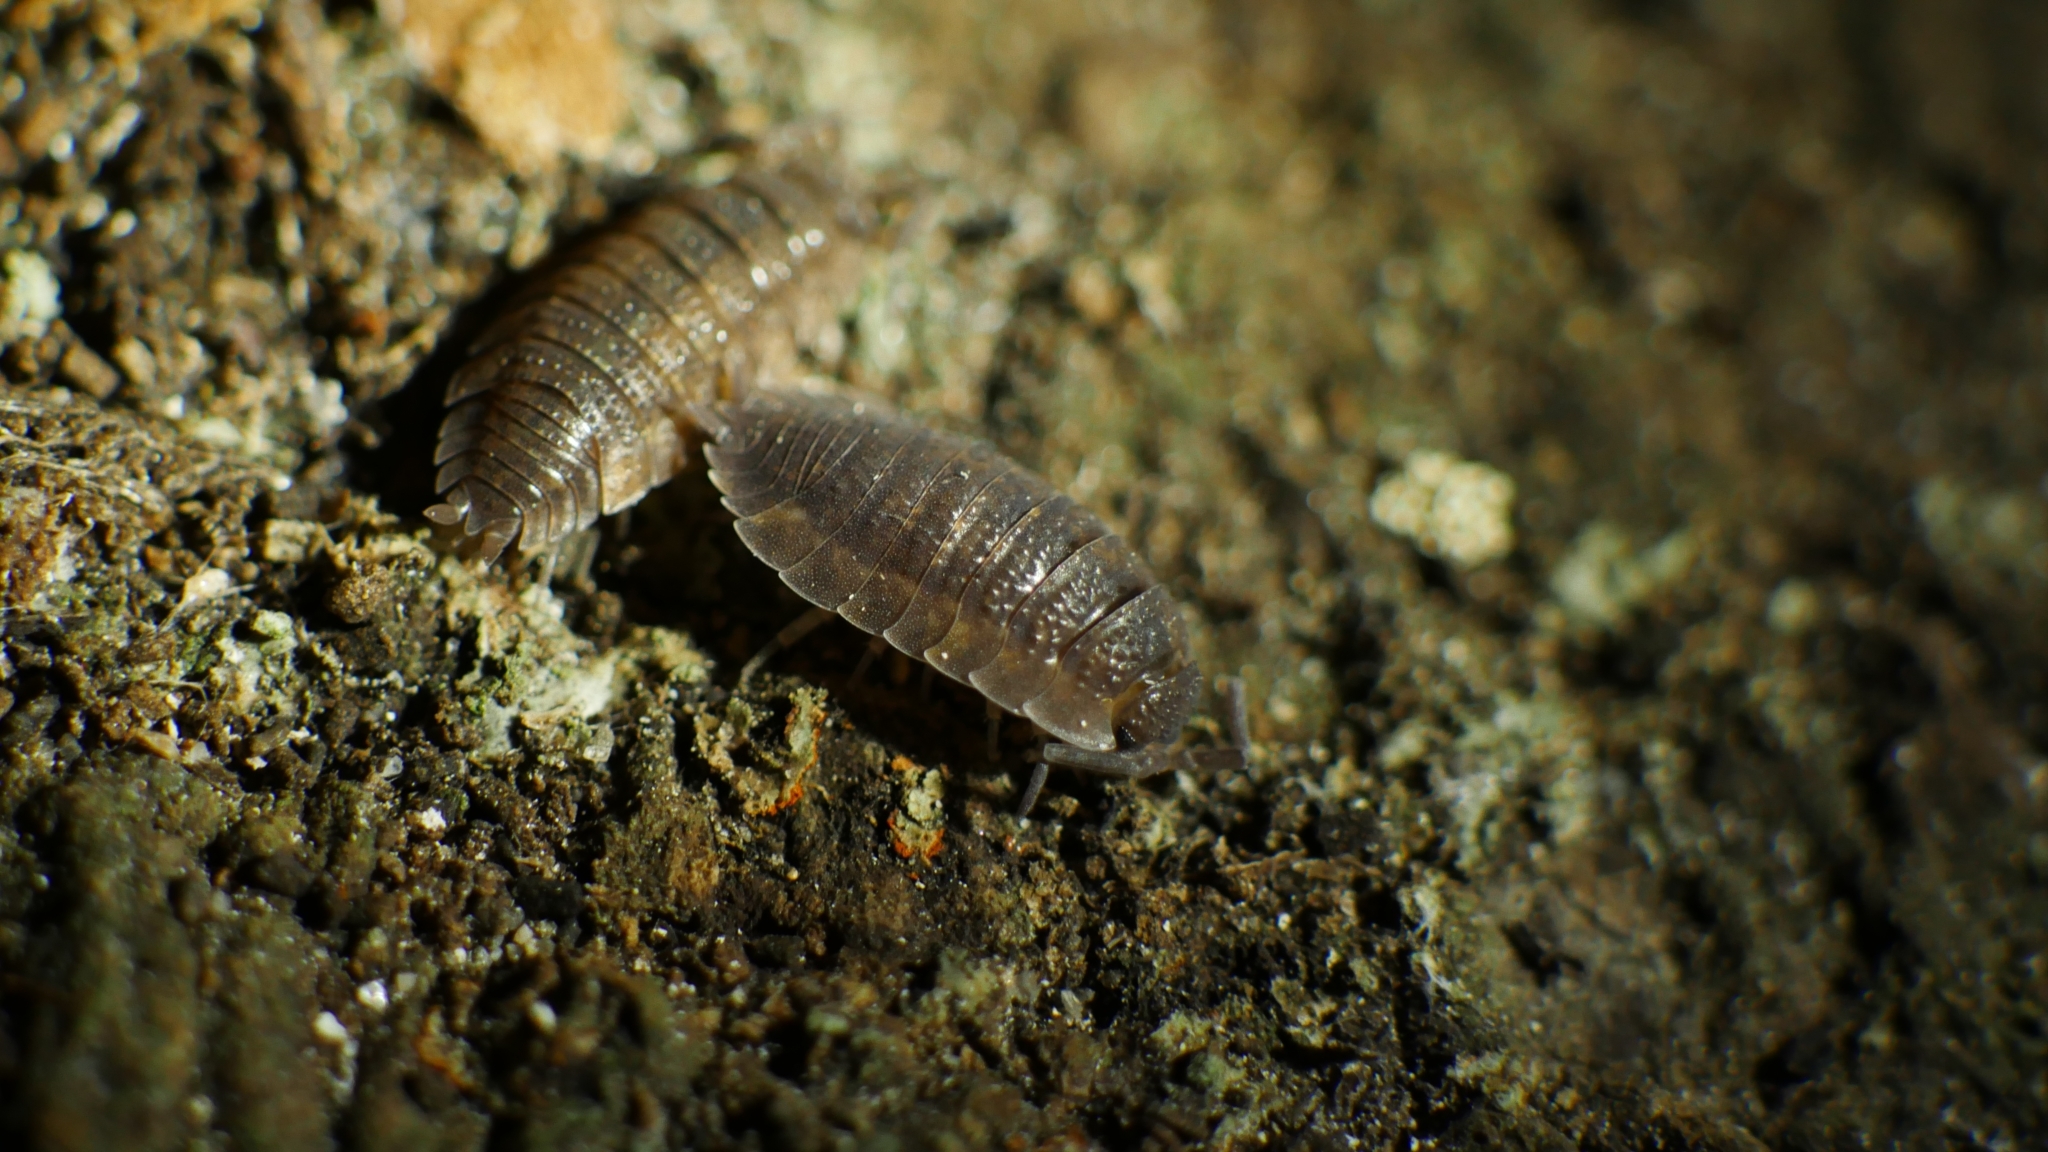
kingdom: Animalia
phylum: Arthropoda
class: Malacostraca
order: Isopoda
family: Porcellionidae
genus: Porcellio
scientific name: Porcellio scaber
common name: Common rough woodlouse
